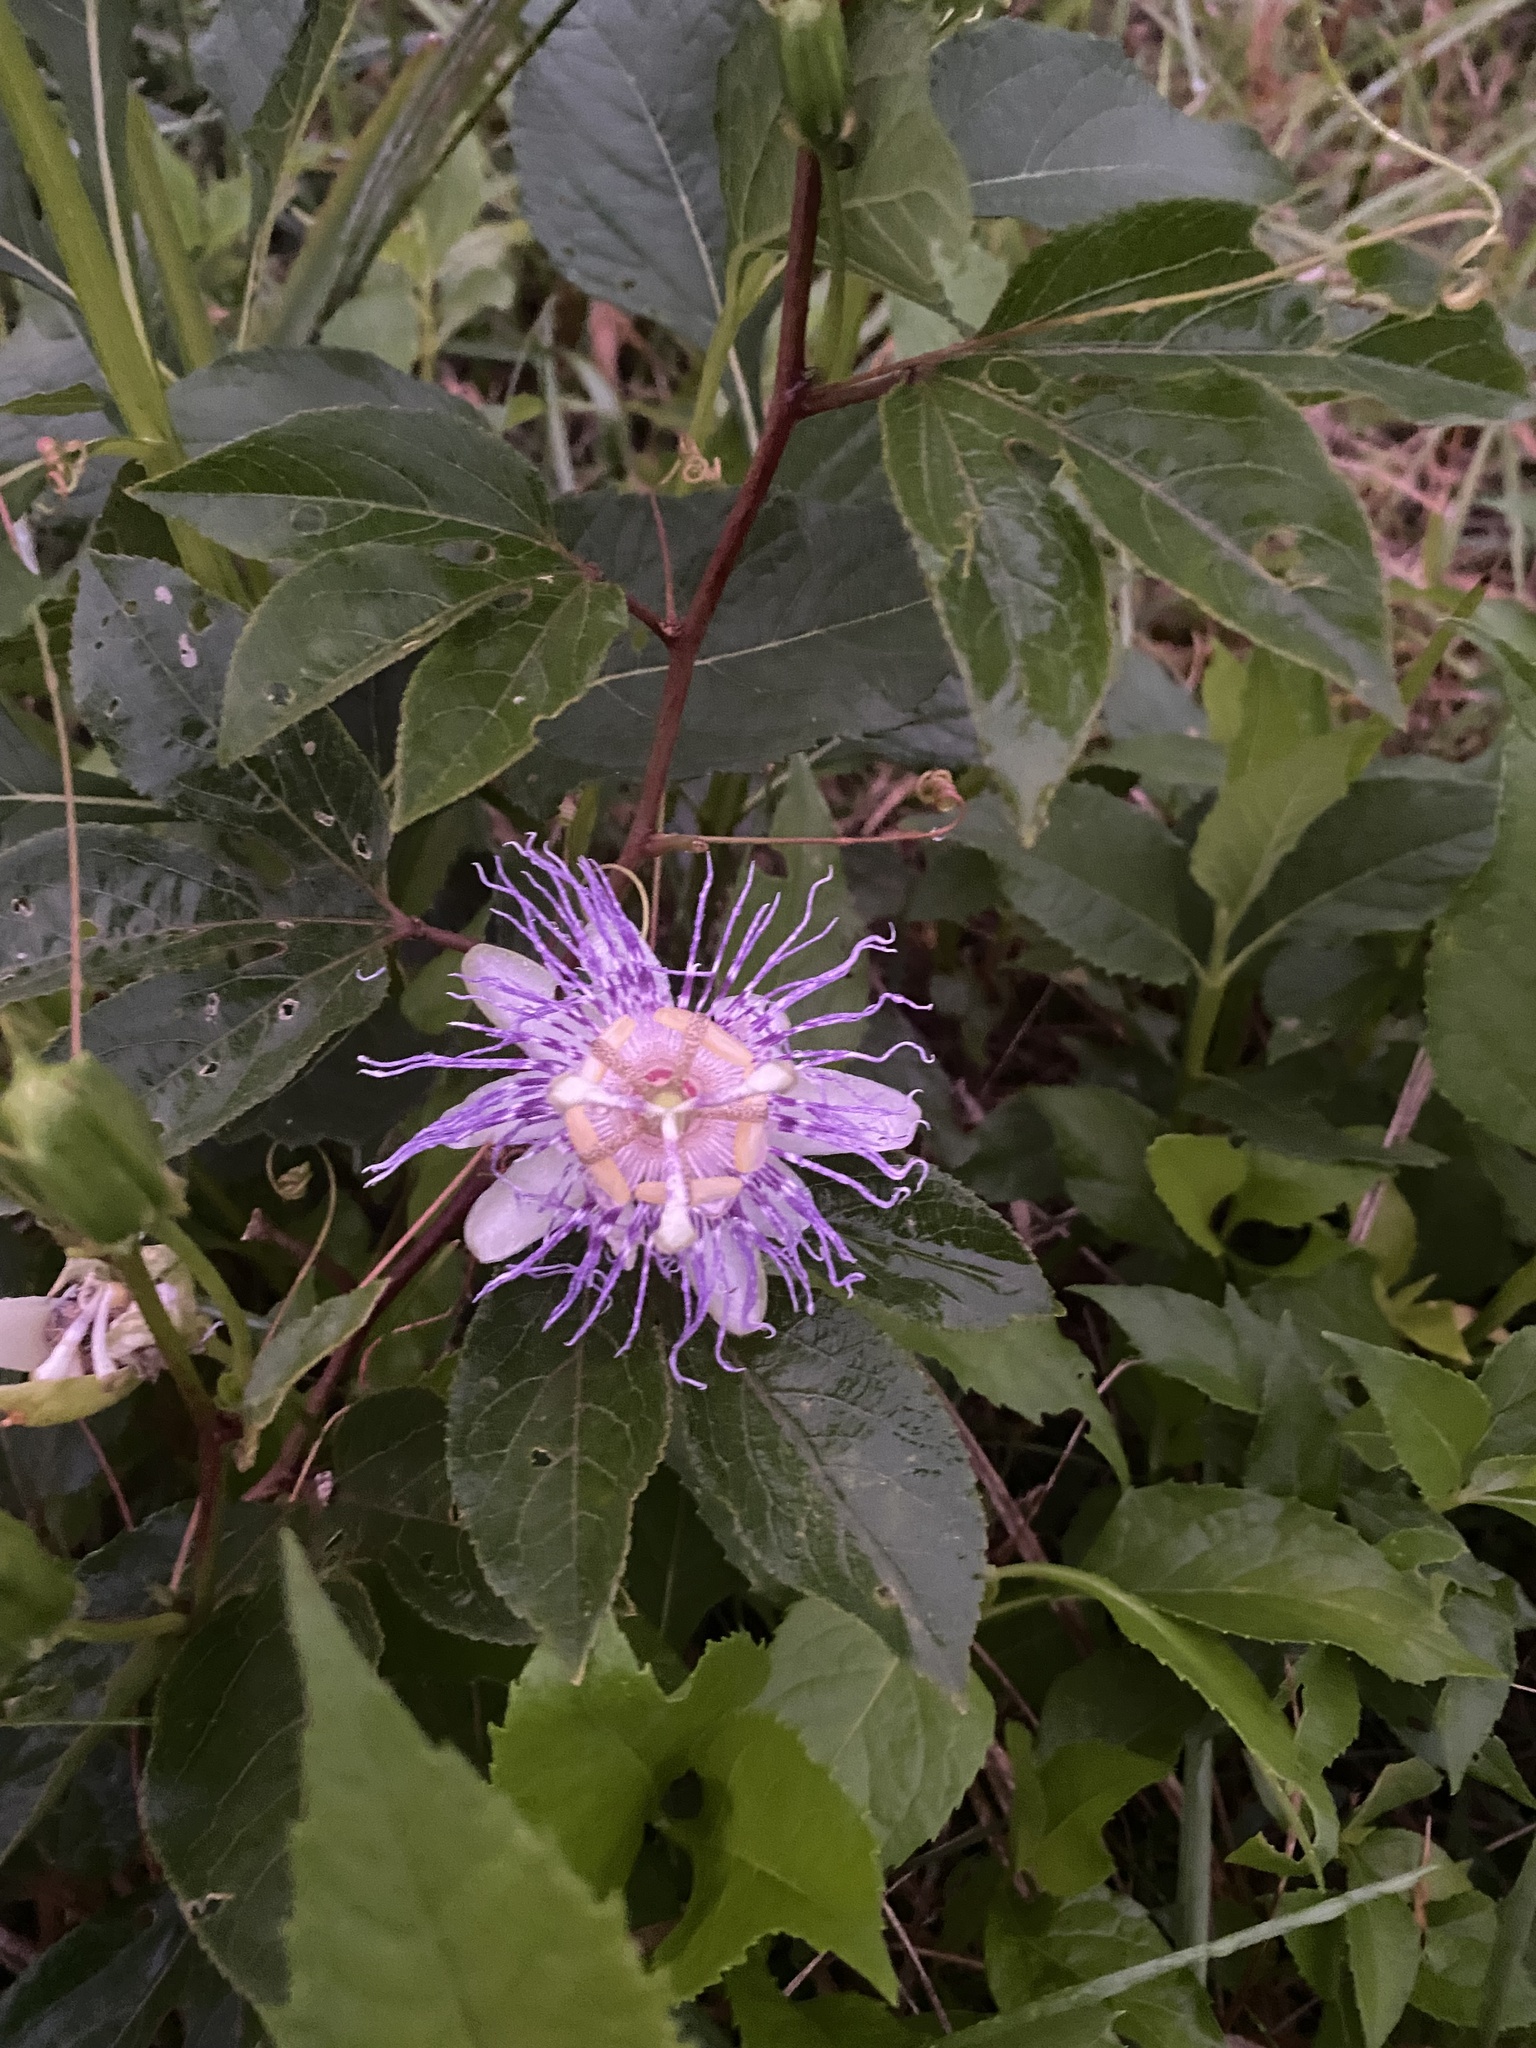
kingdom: Plantae
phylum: Tracheophyta
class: Magnoliopsida
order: Malpighiales
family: Passifloraceae
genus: Passiflora
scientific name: Passiflora incarnata
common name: Apricot-vine
